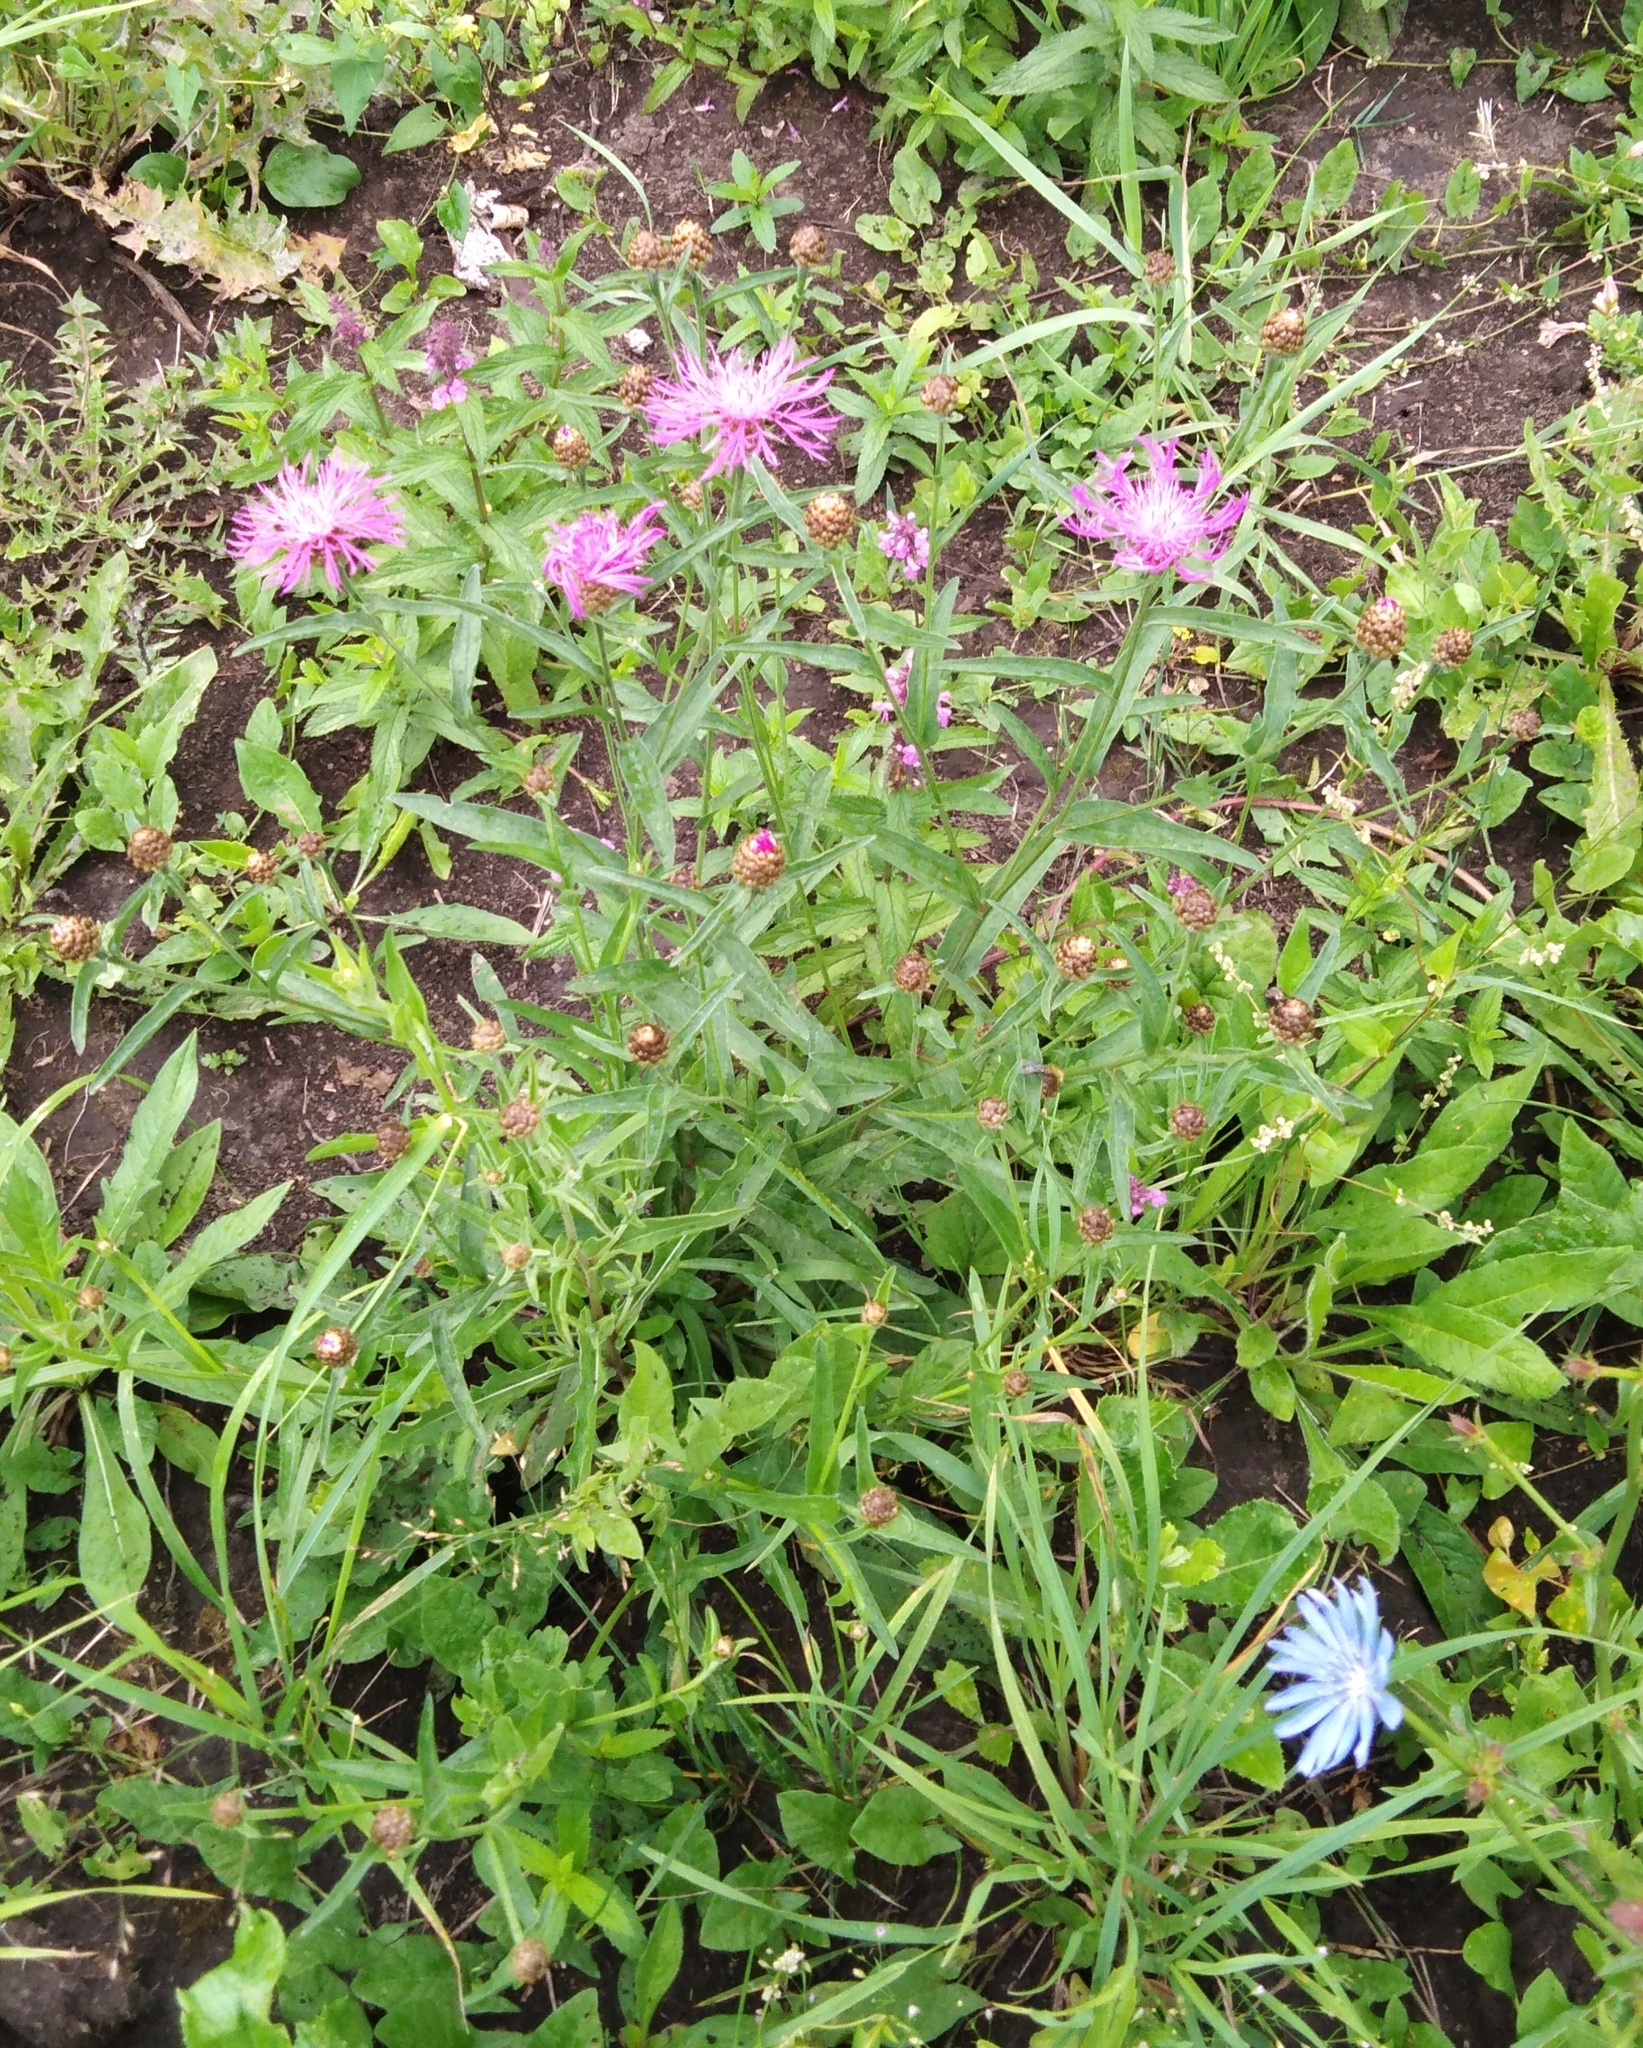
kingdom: Plantae
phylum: Tracheophyta
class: Magnoliopsida
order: Asterales
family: Asteraceae
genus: Centaurea
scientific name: Centaurea jacea
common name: Brown knapweed
